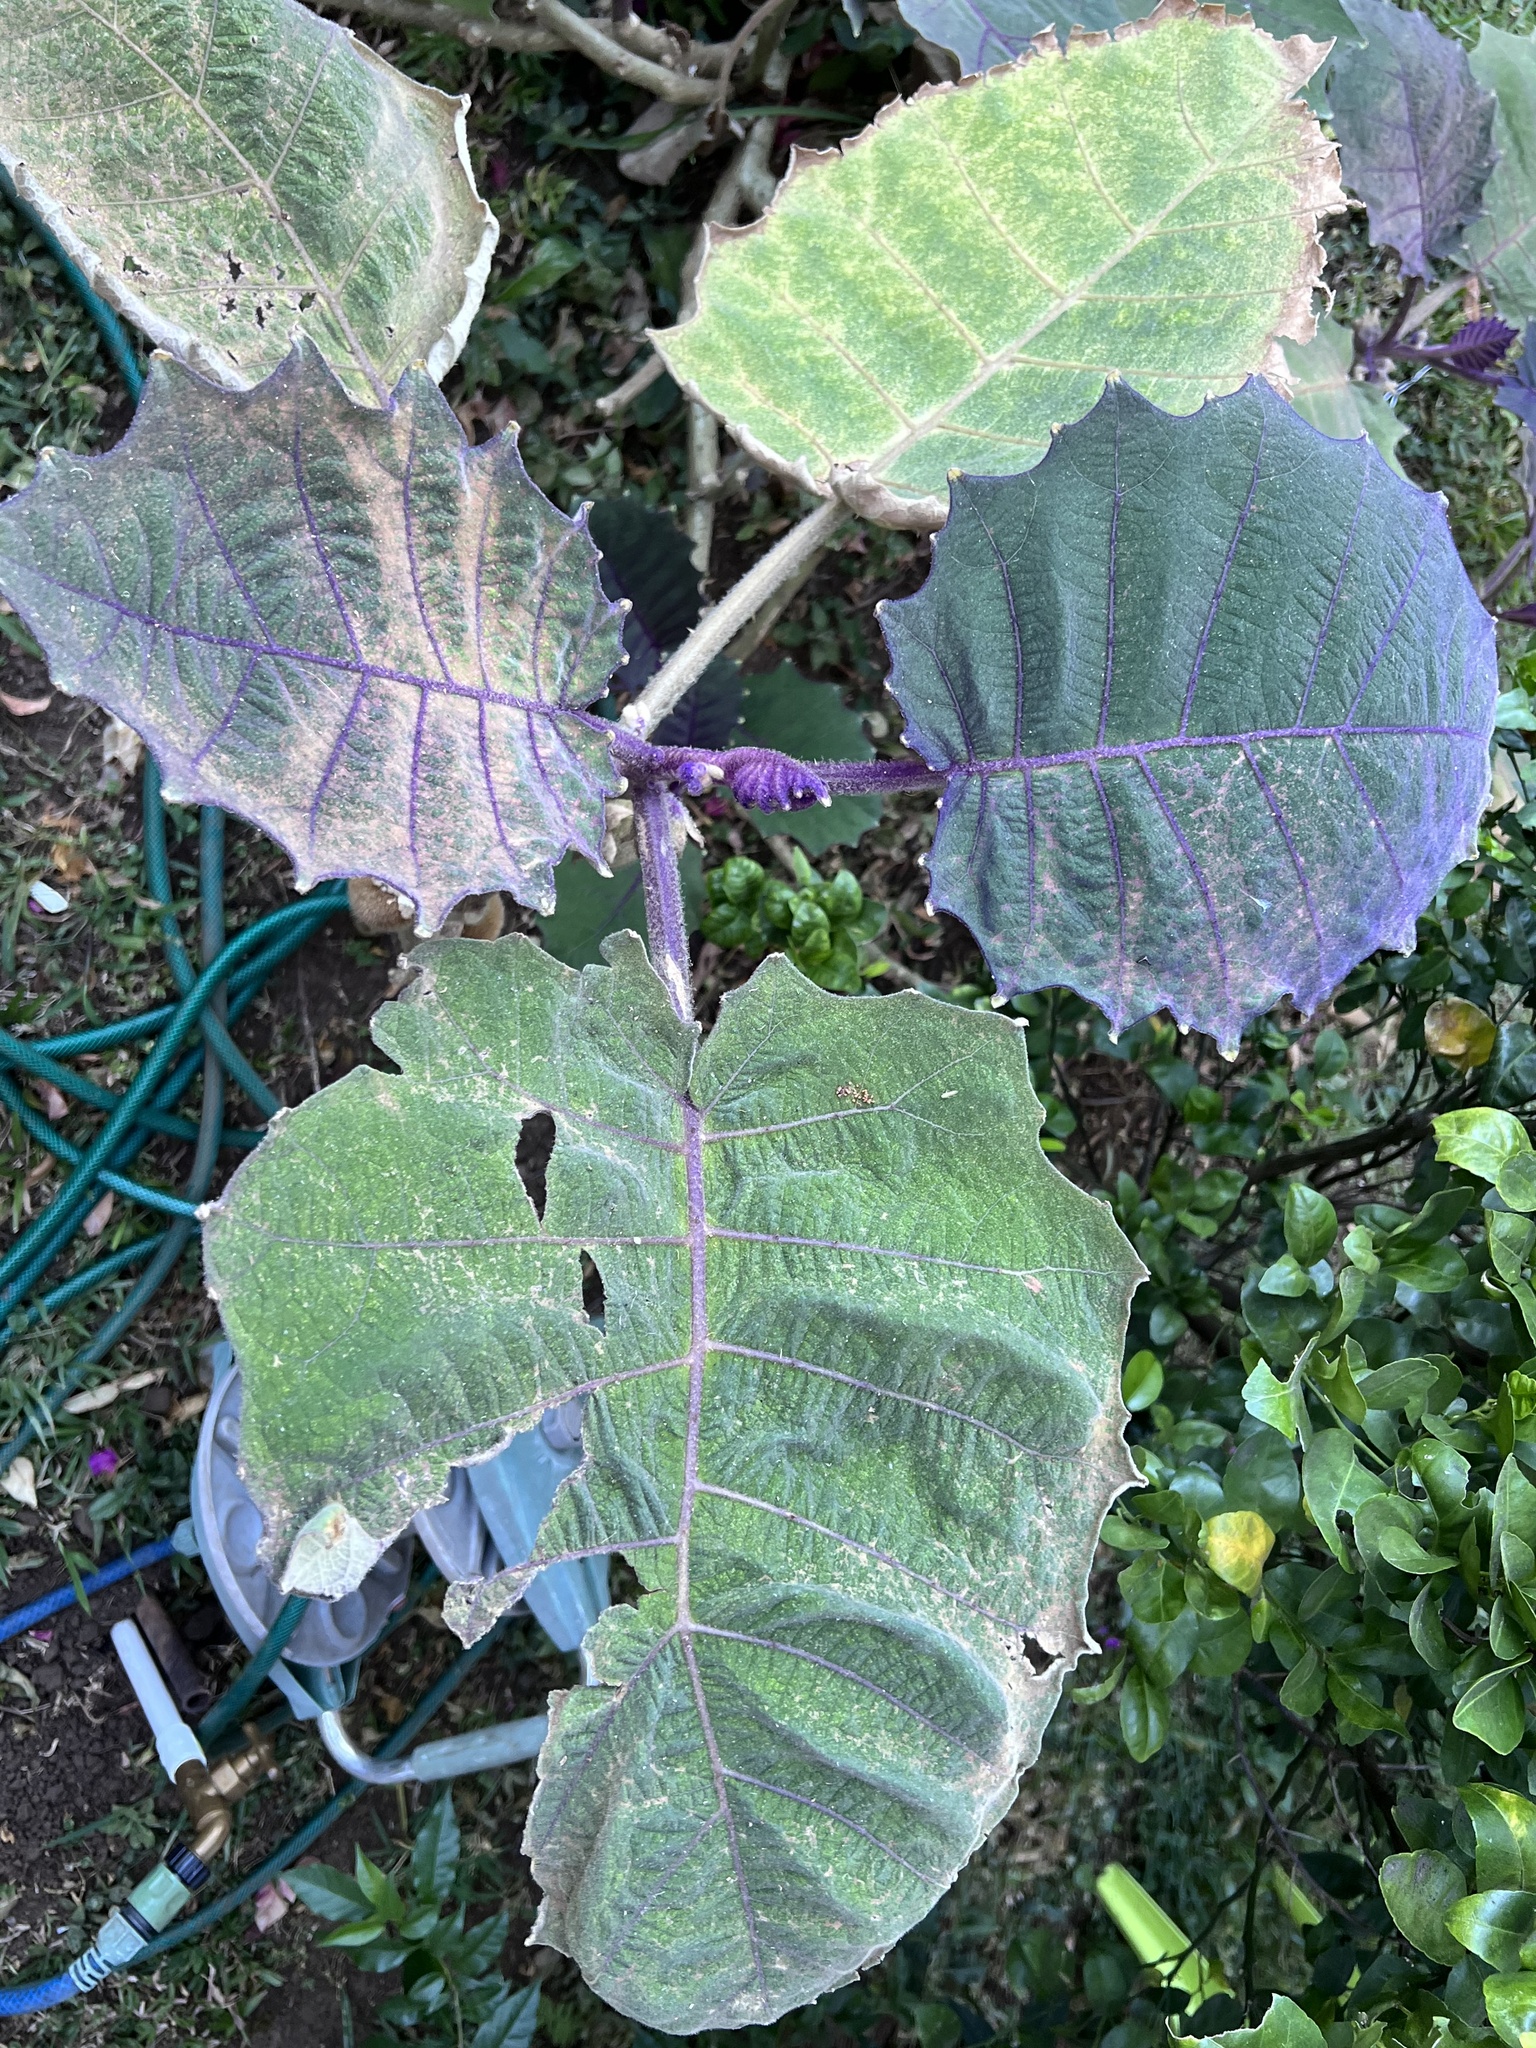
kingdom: Plantae
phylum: Tracheophyta
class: Magnoliopsida
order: Solanales
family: Solanaceae
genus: Solanum
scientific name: Solanum quitoense
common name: Quito-orange
